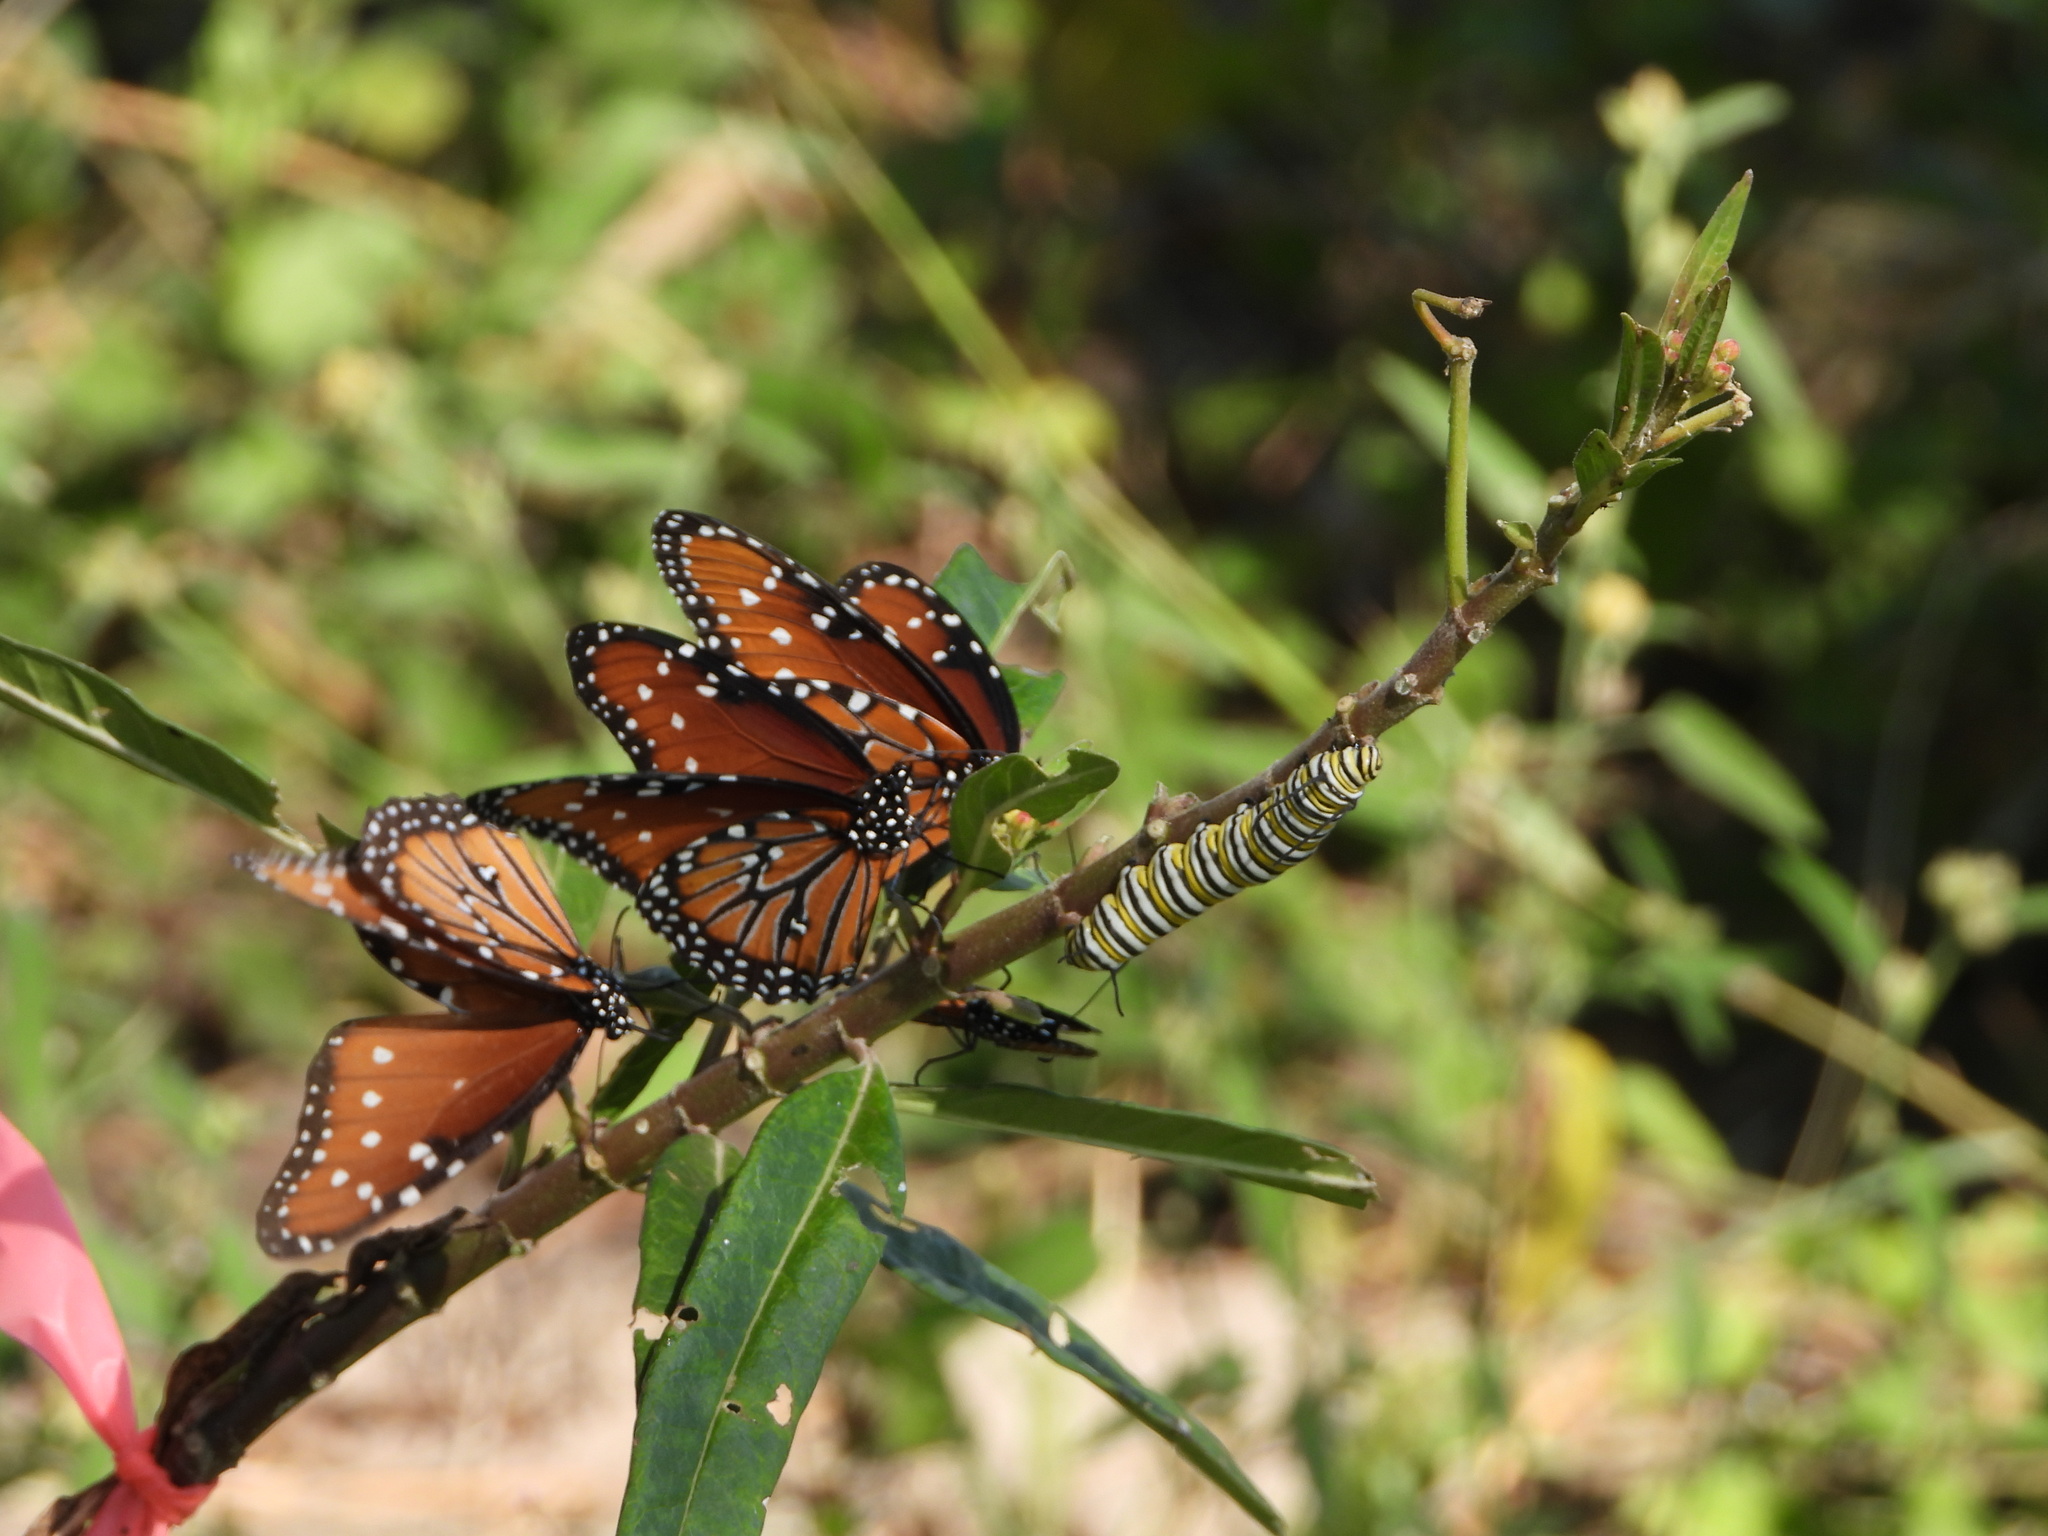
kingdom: Animalia
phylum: Arthropoda
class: Insecta
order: Lepidoptera
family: Nymphalidae
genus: Danaus
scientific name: Danaus gilippus
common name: Queen
